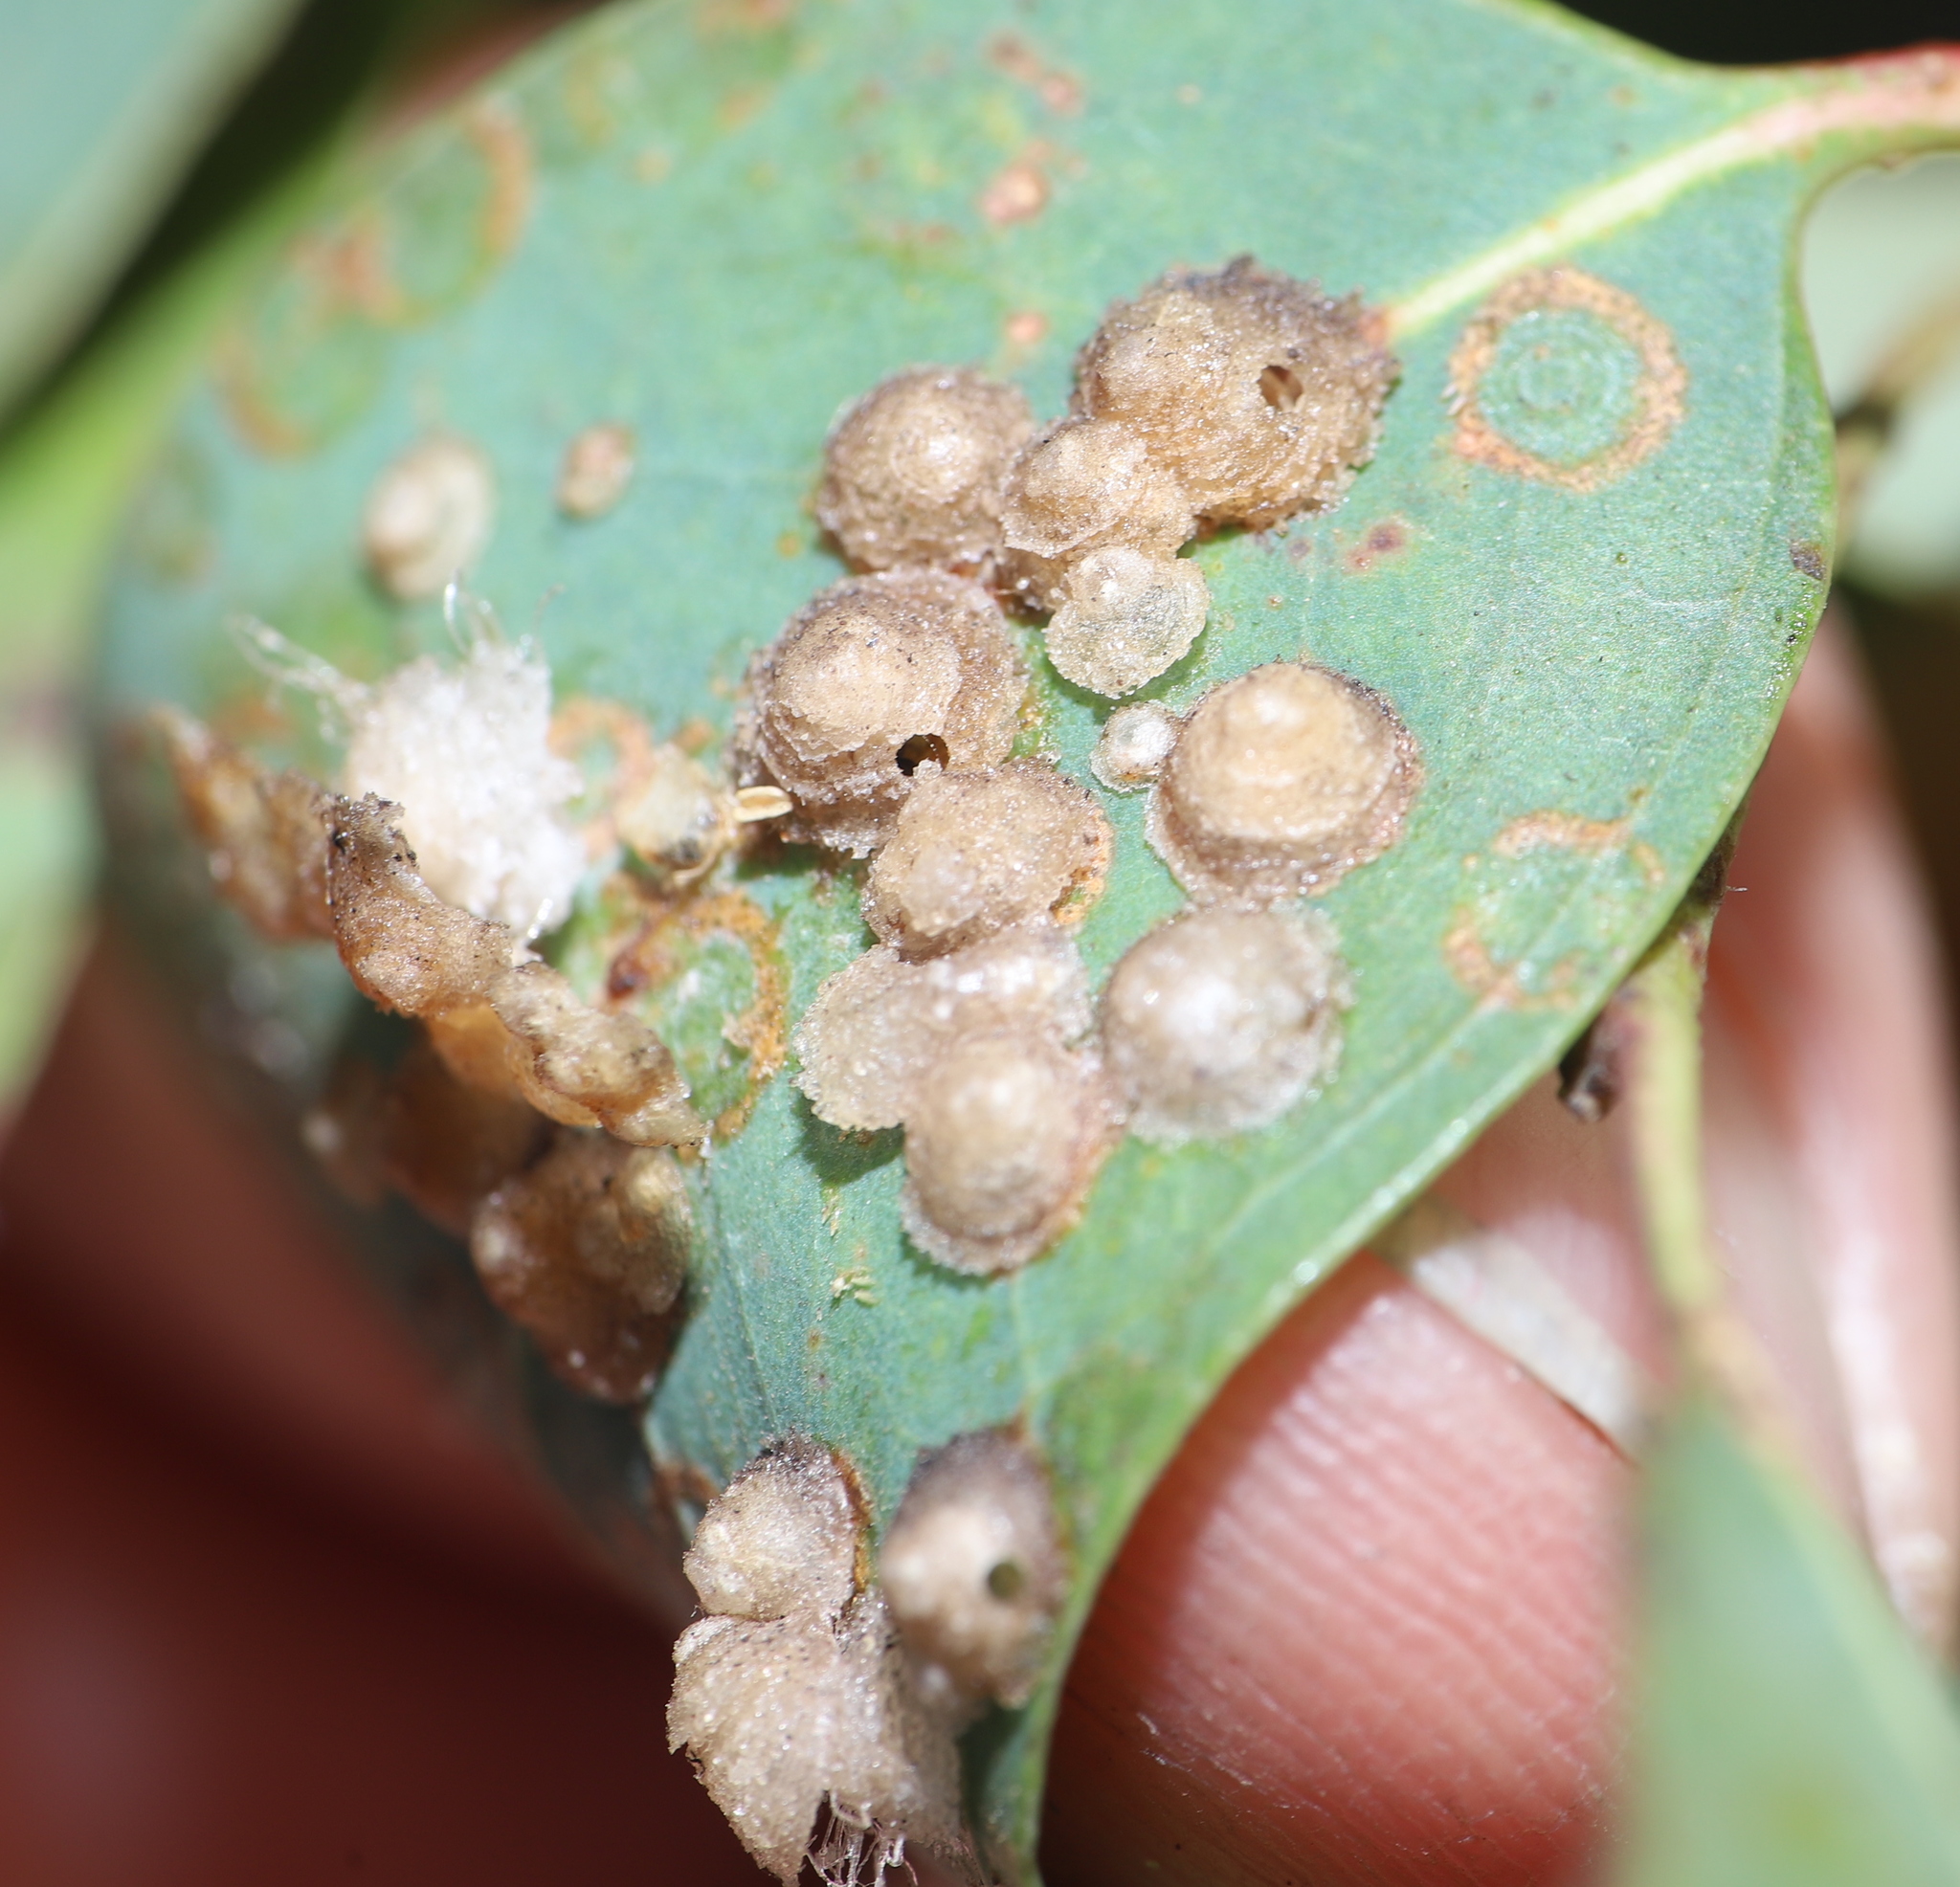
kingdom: Animalia
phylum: Arthropoda
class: Insecta
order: Hemiptera
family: Aphalaridae
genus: Glycaspis
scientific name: Glycaspis brimblecombei
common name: Red gum lerp psyllid
